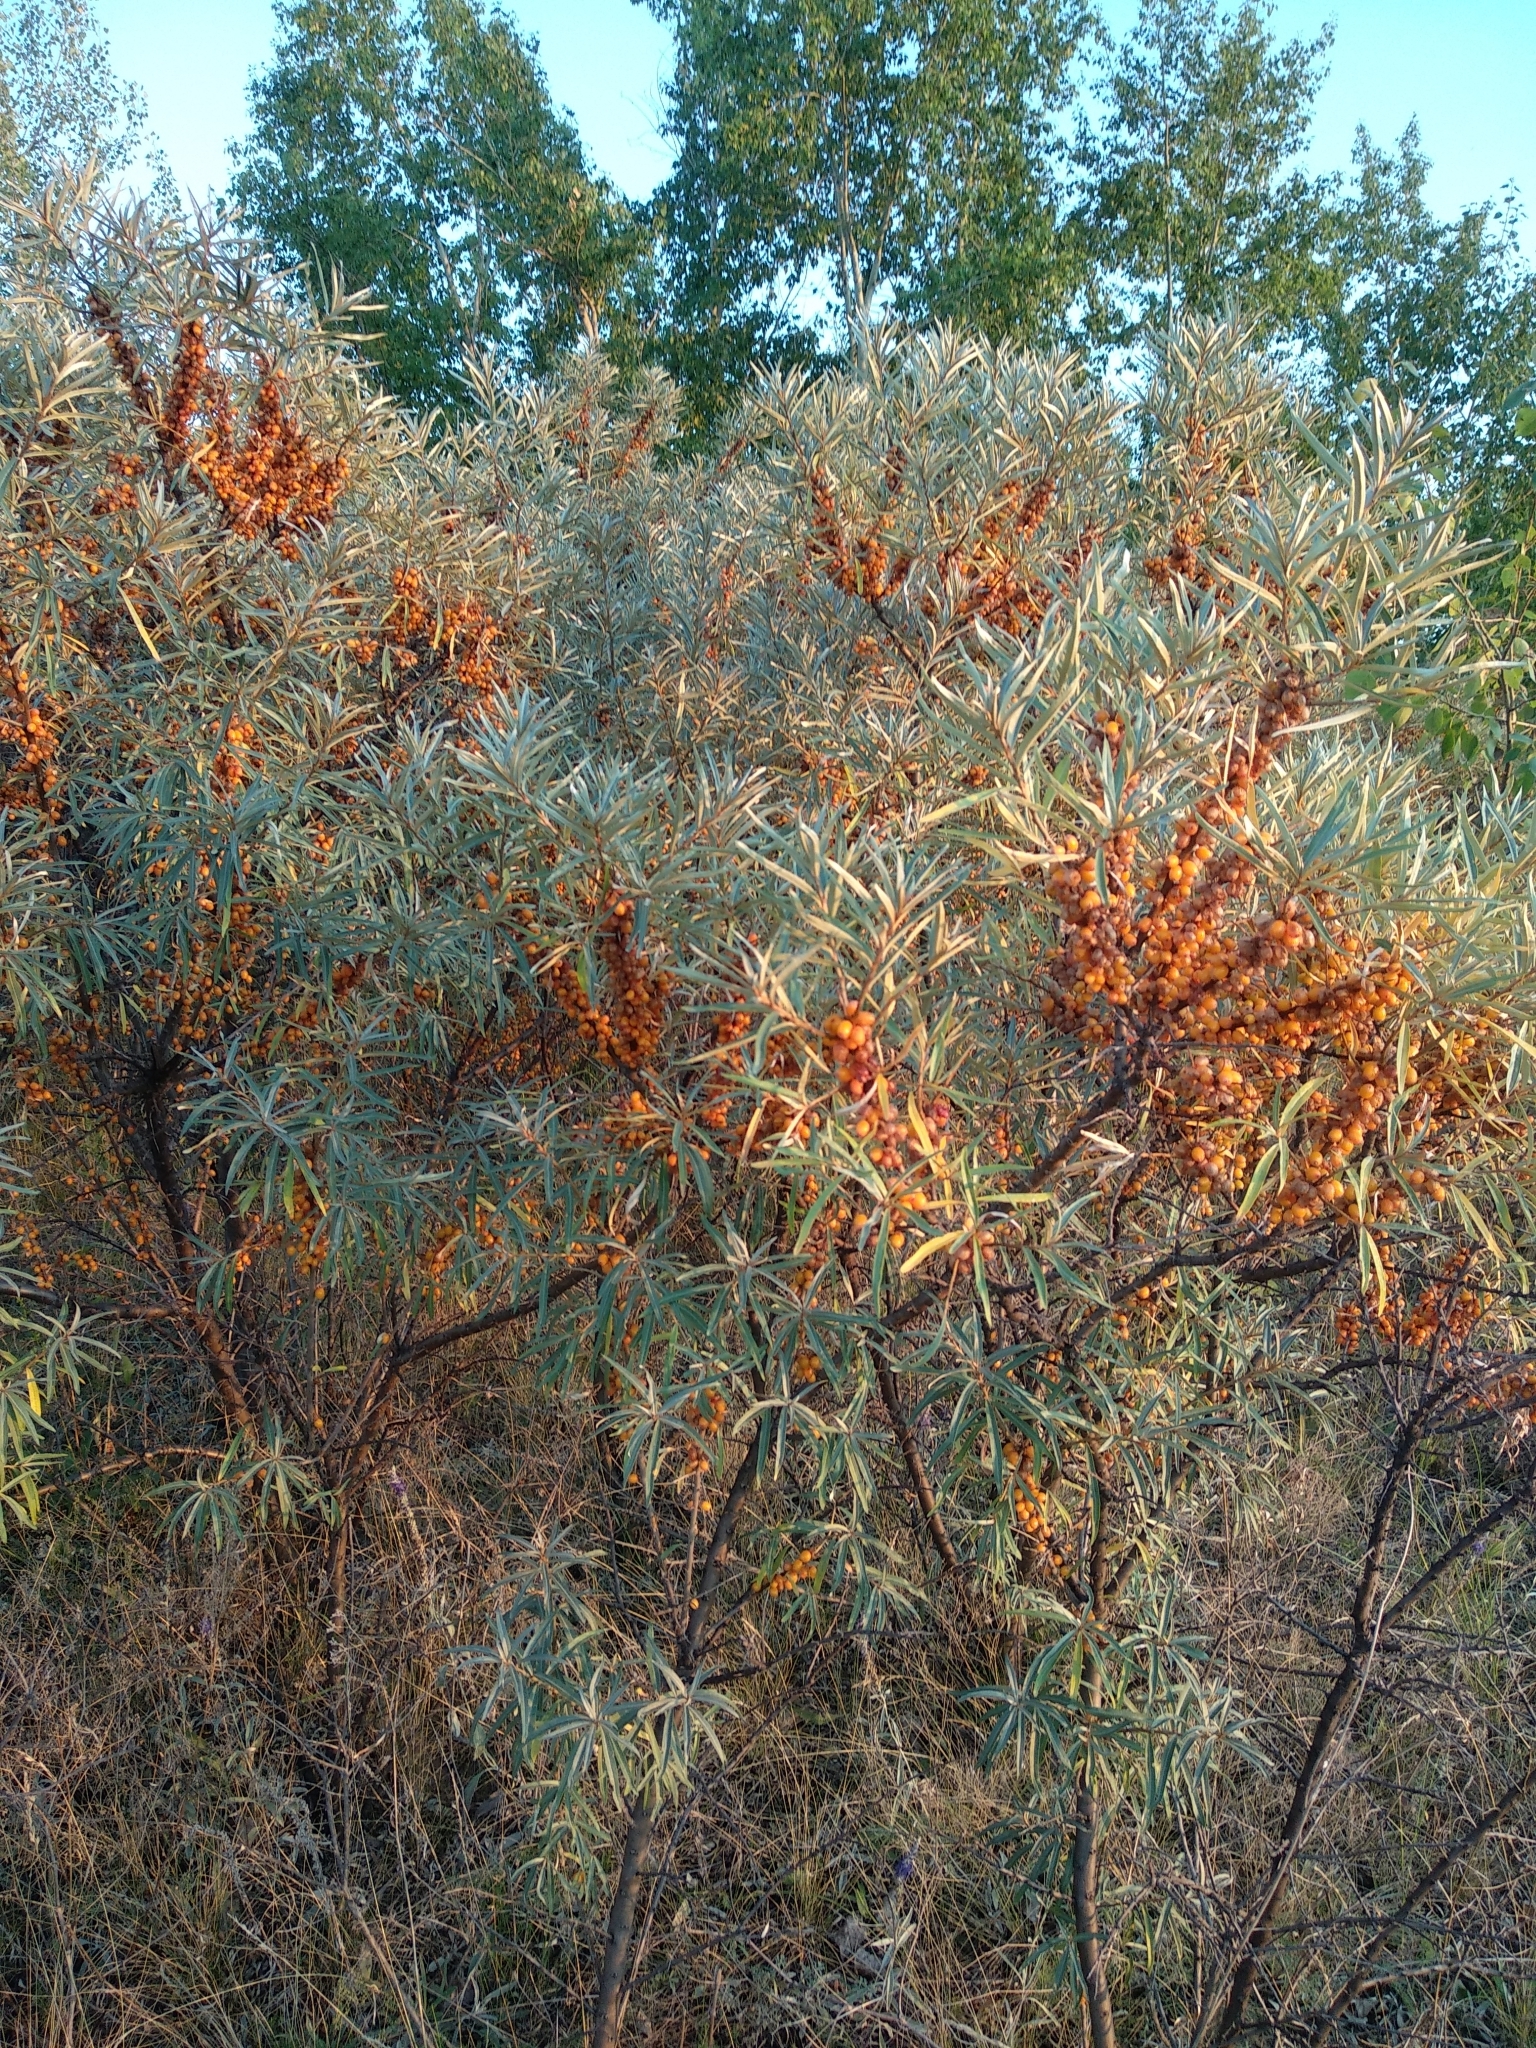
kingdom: Plantae
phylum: Tracheophyta
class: Magnoliopsida
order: Rosales
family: Elaeagnaceae
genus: Hippophae
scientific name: Hippophae rhamnoides
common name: Sea-buckthorn
